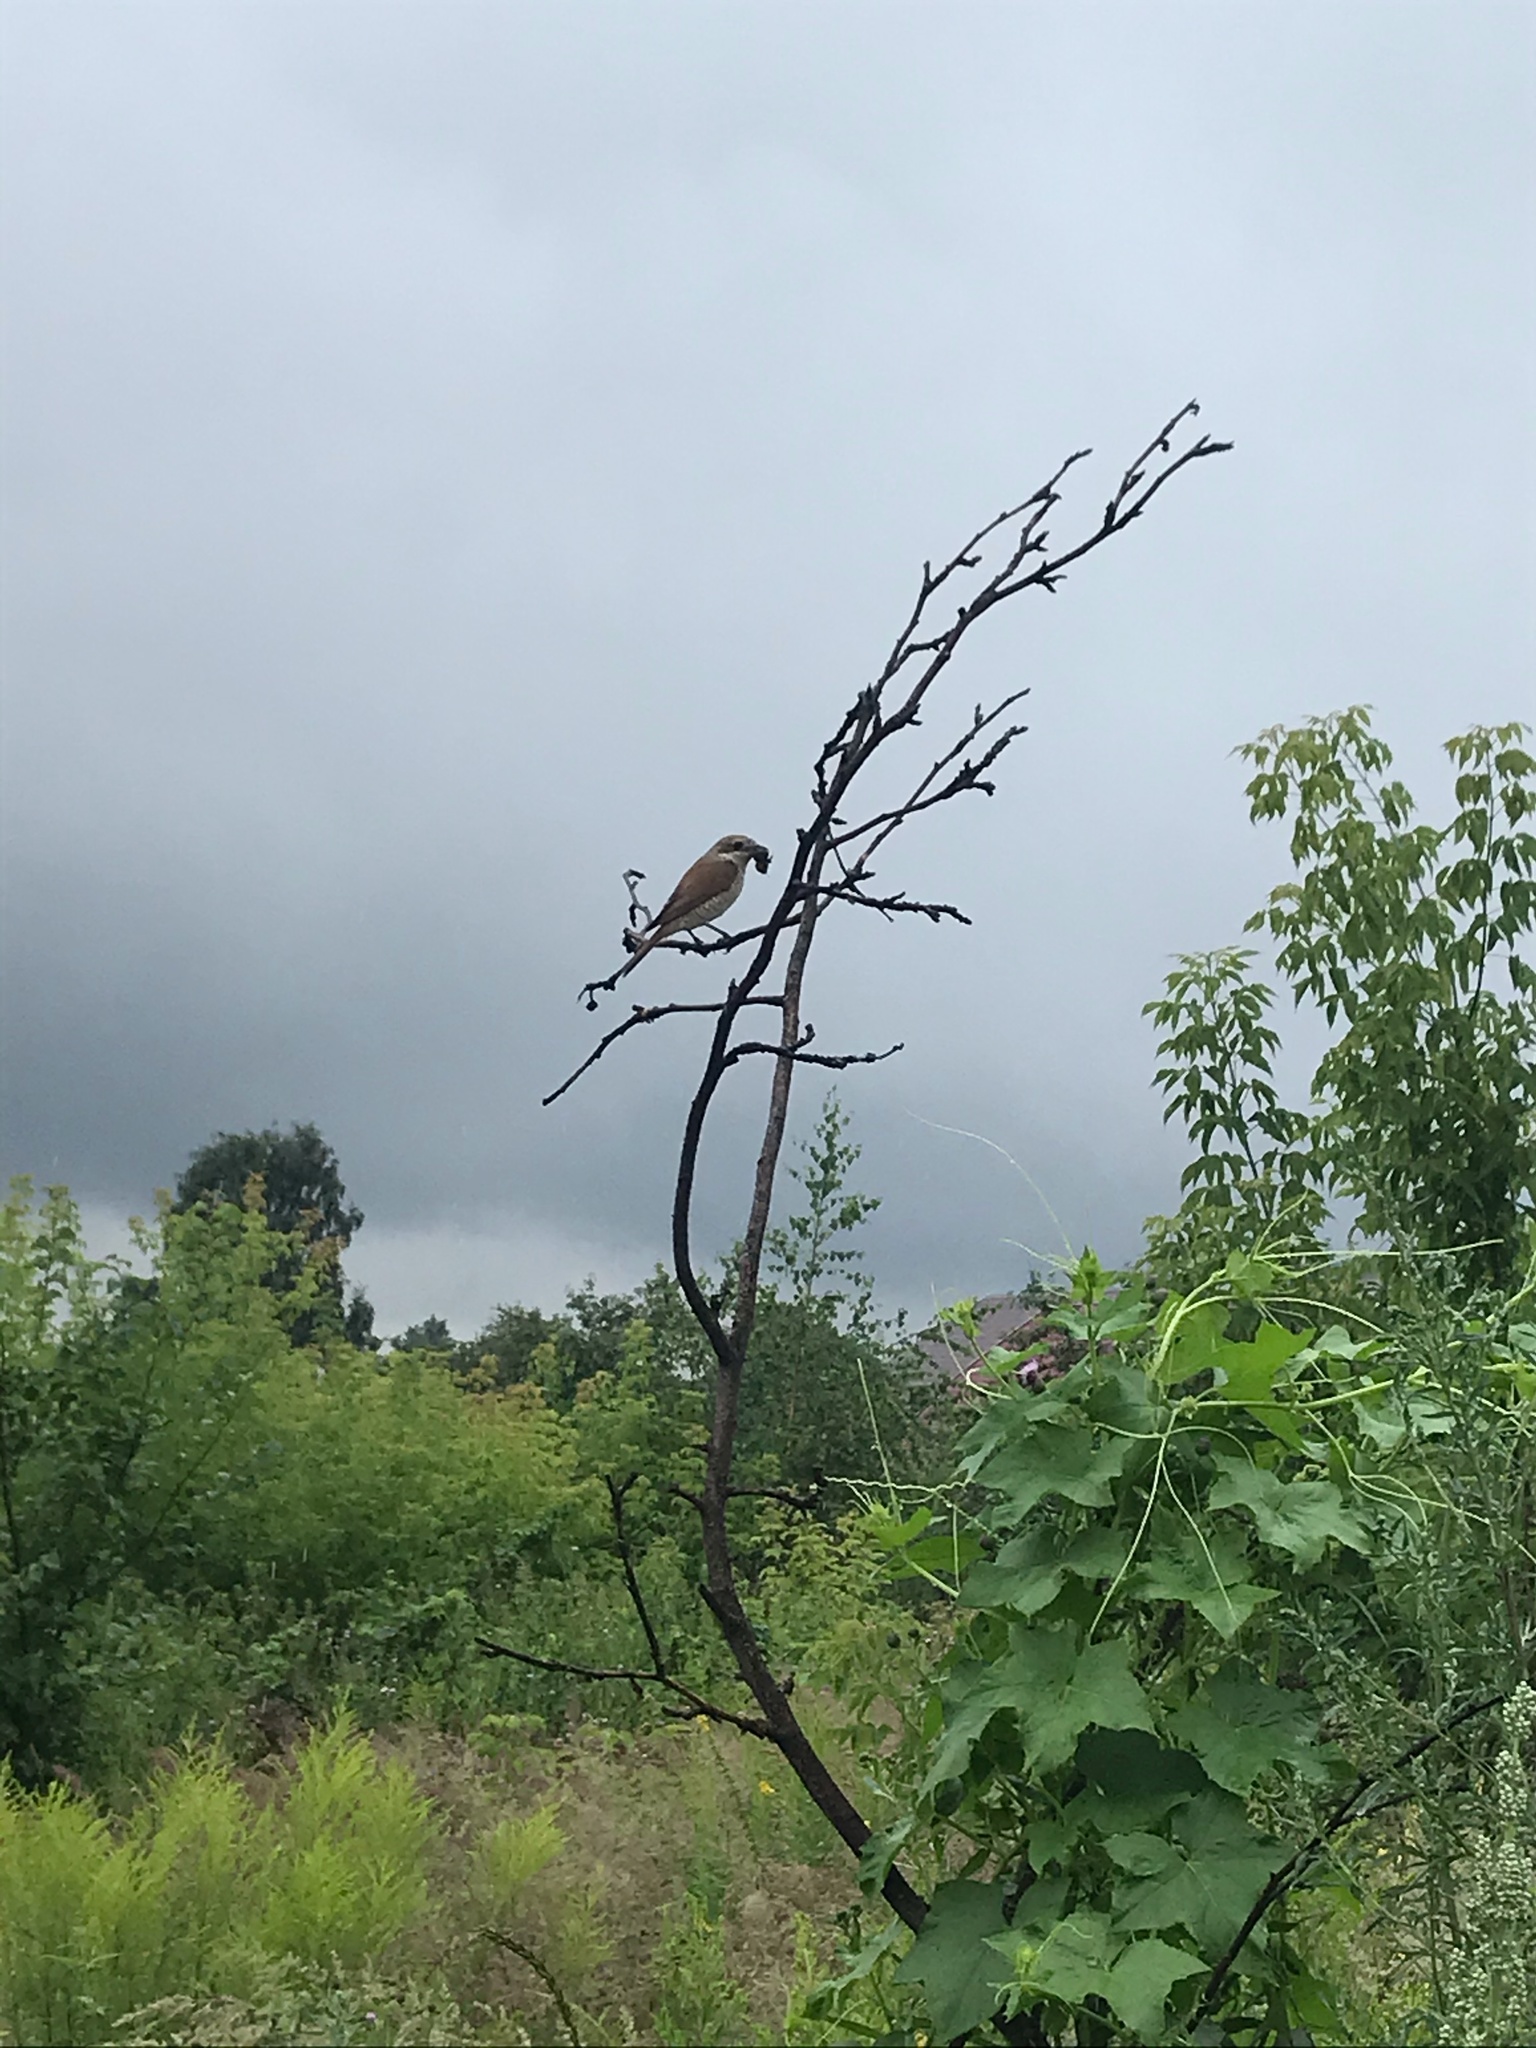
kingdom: Animalia
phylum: Chordata
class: Aves
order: Passeriformes
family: Laniidae
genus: Lanius
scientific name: Lanius collurio
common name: Red-backed shrike
